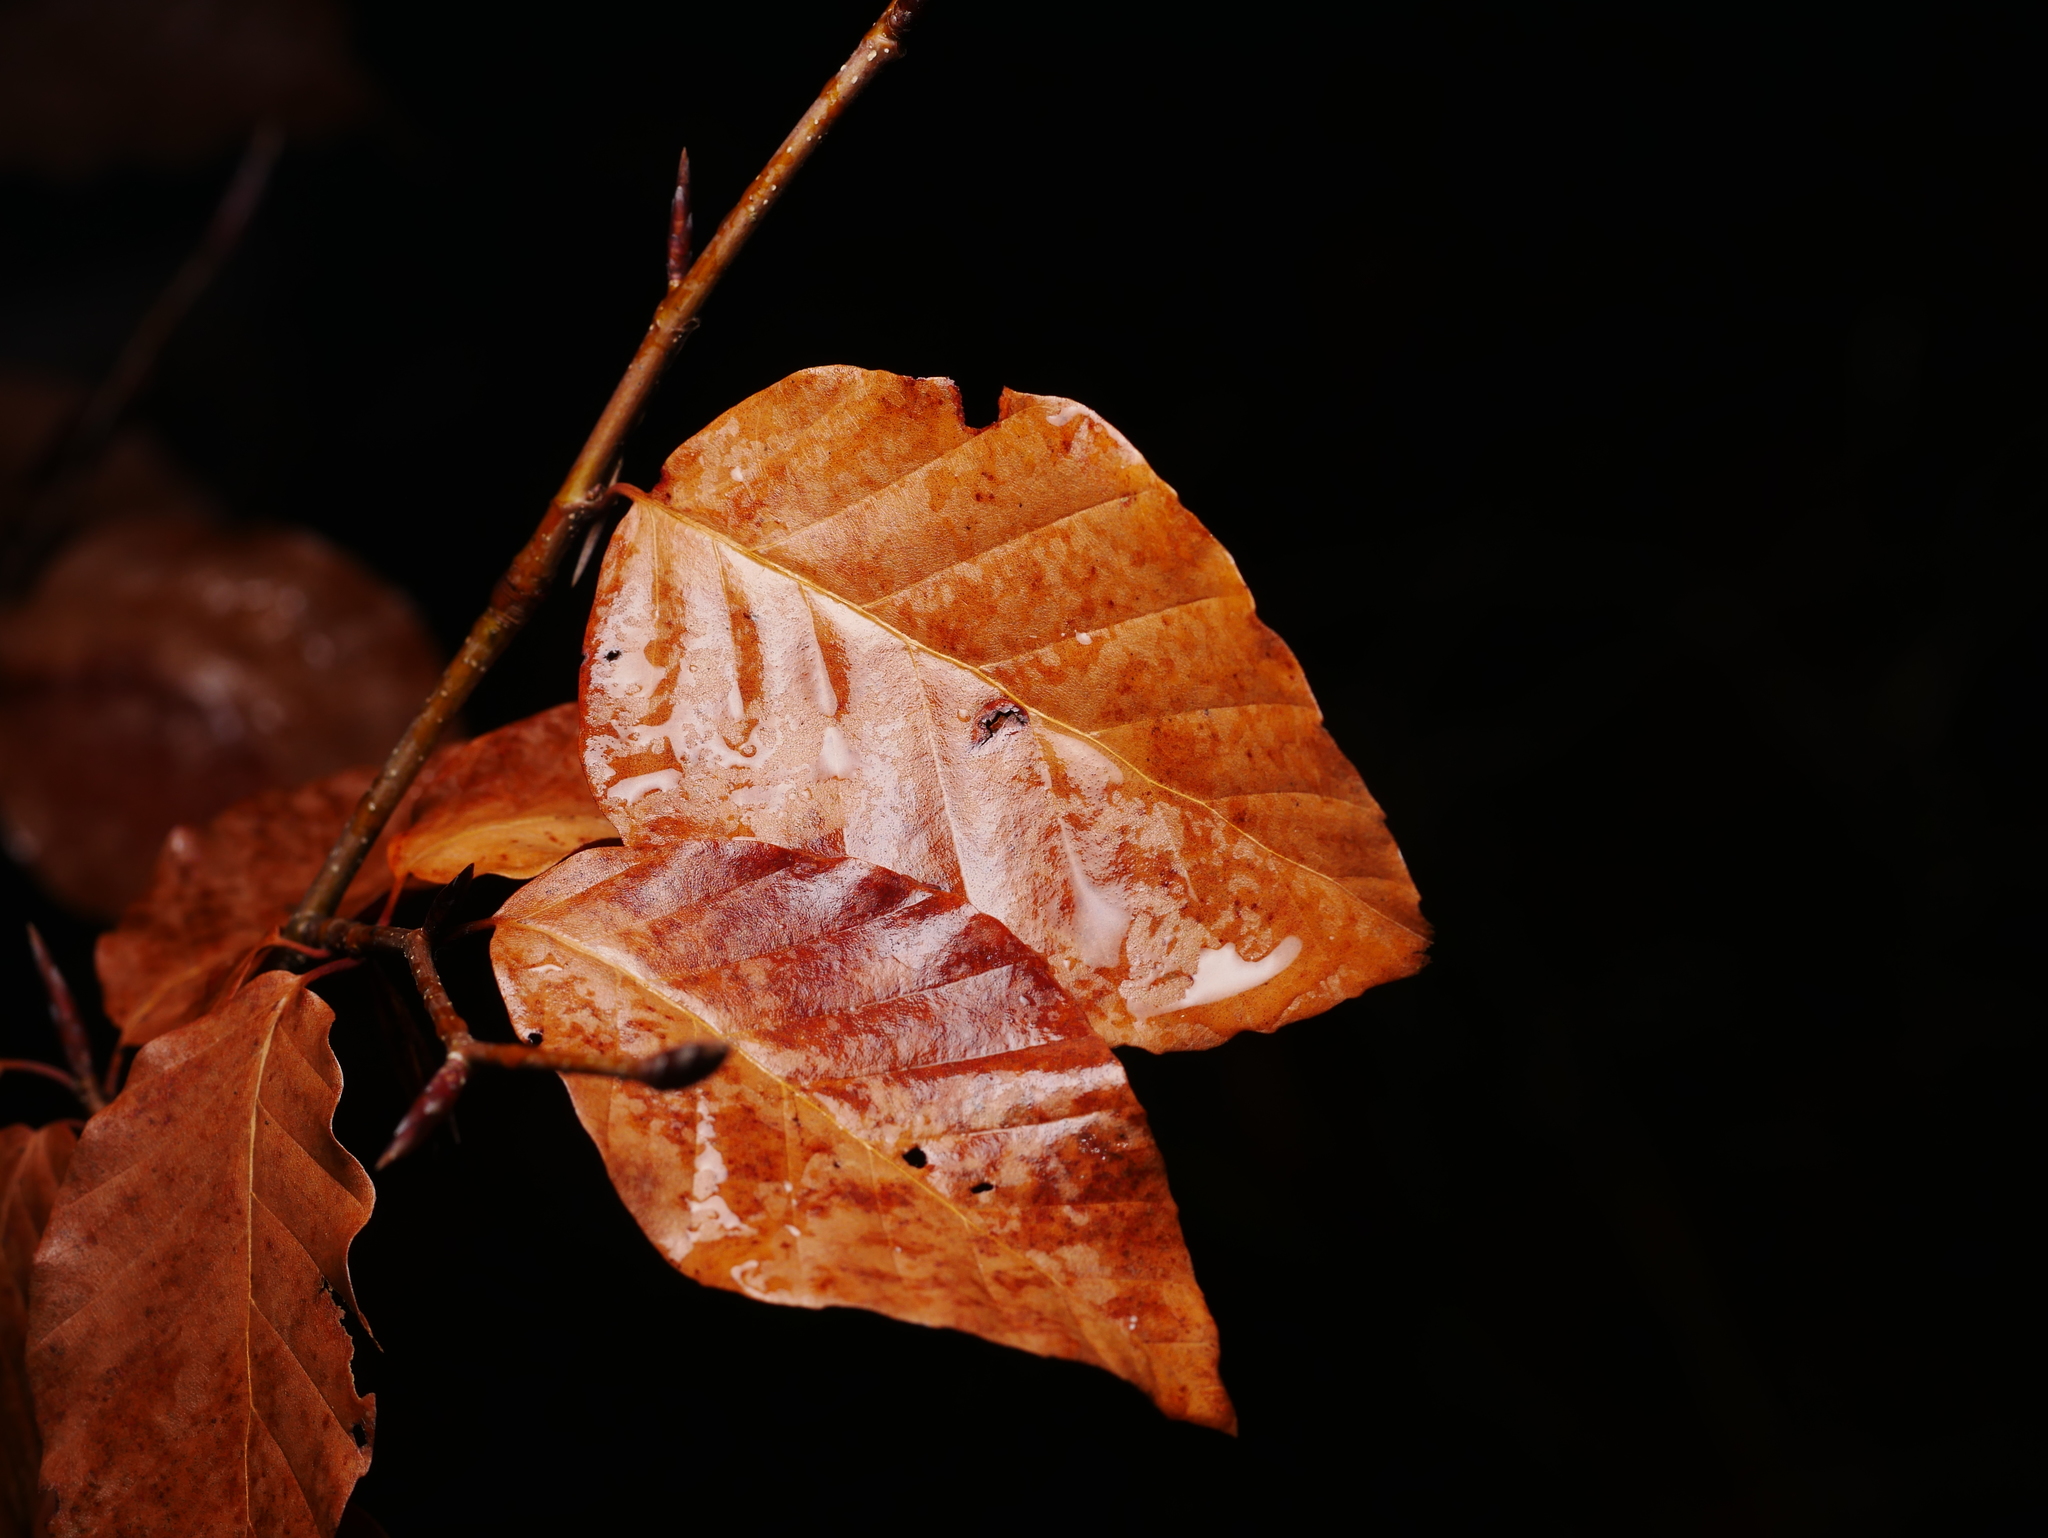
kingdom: Plantae
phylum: Tracheophyta
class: Magnoliopsida
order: Fagales
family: Fagaceae
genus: Fagus
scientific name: Fagus sylvatica
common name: Beech
